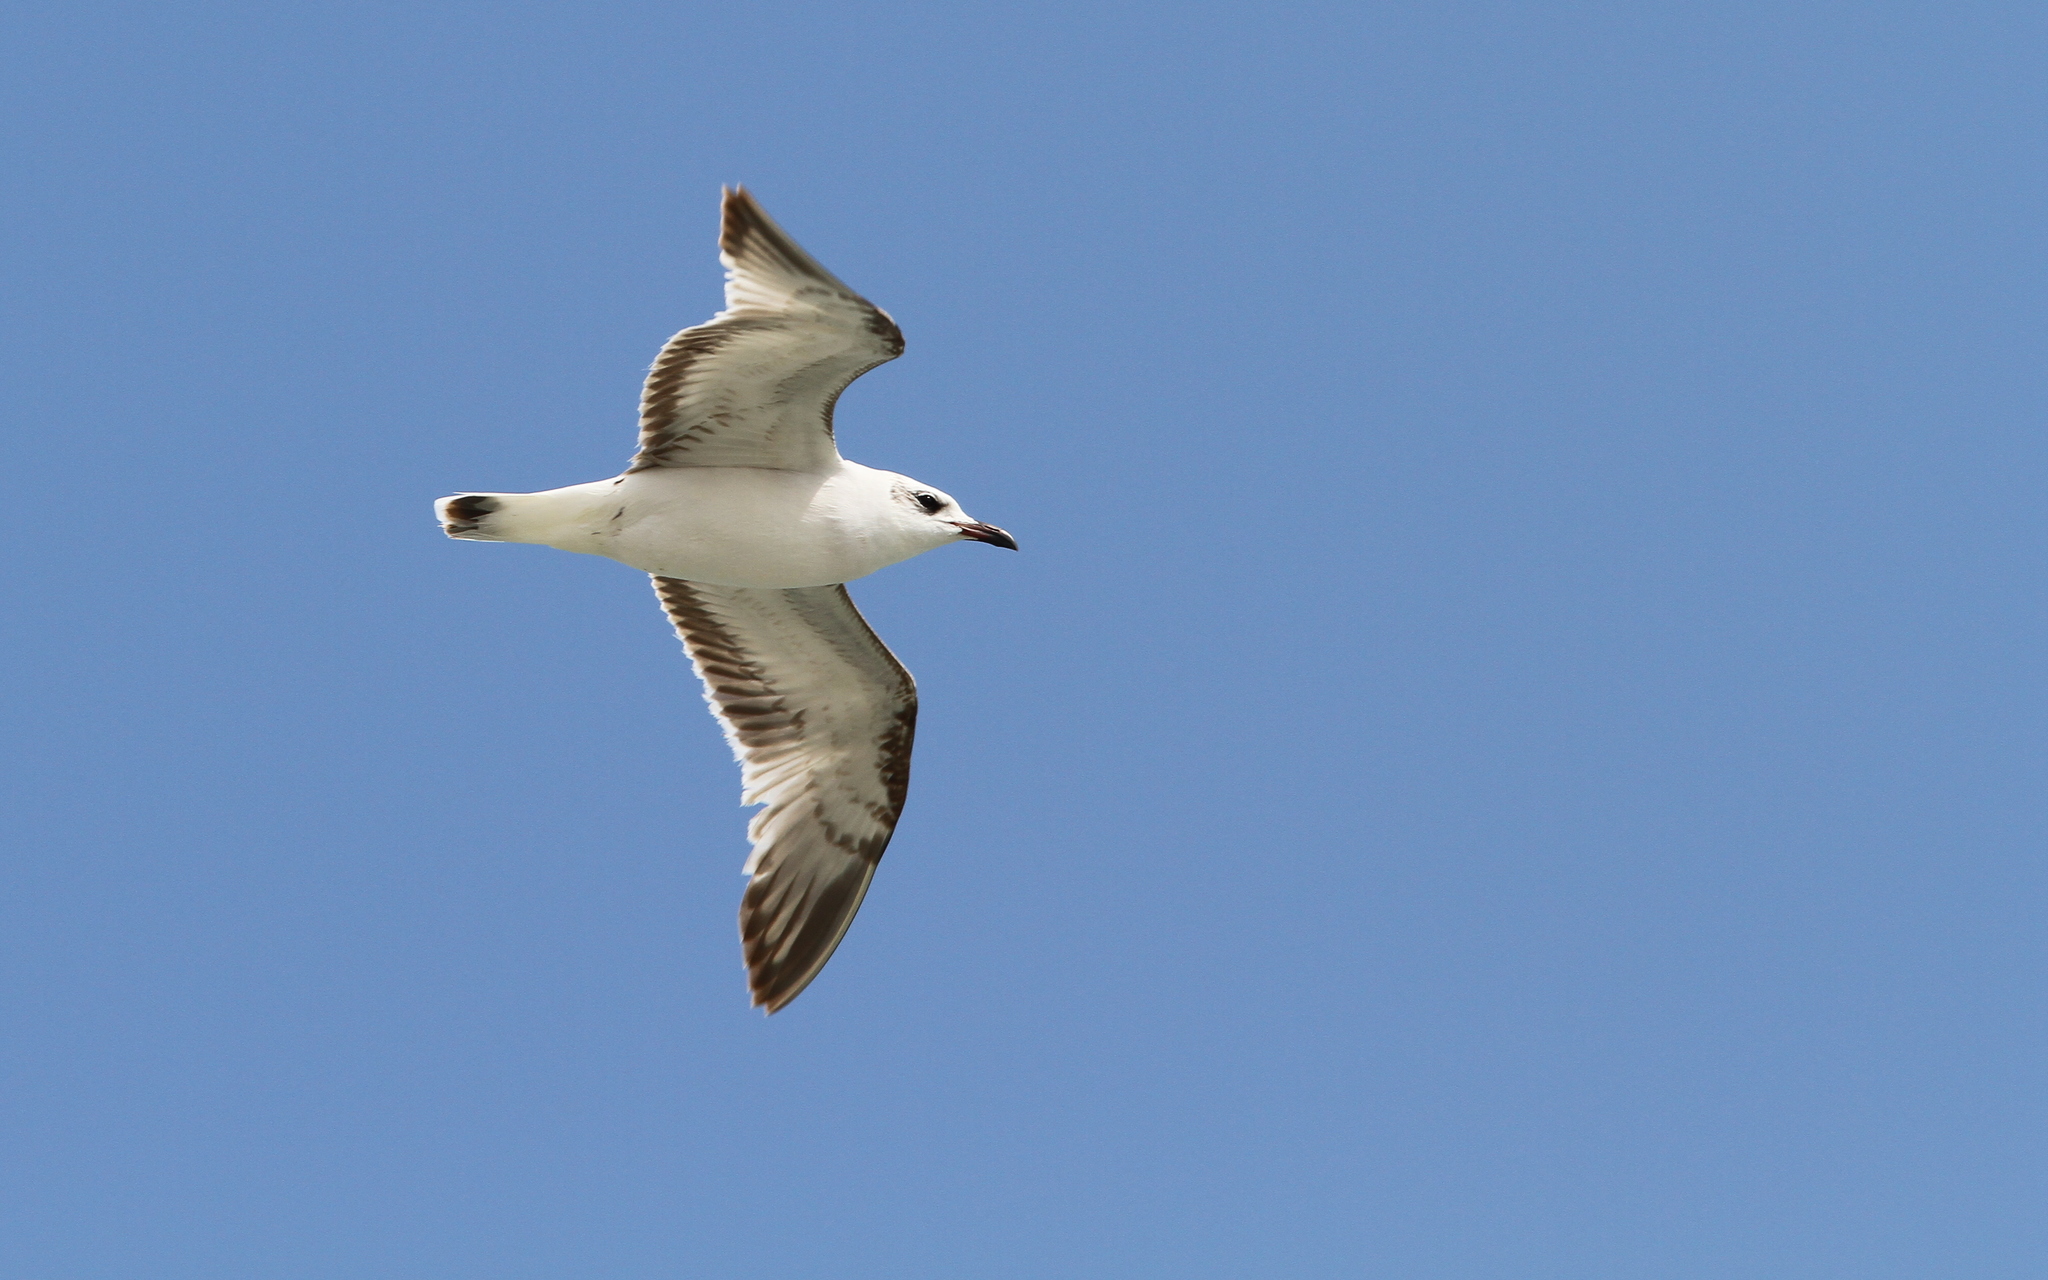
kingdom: Animalia
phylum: Chordata
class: Aves
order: Charadriiformes
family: Laridae
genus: Ichthyaetus
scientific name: Ichthyaetus melanocephalus
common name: Mediterranean gull
